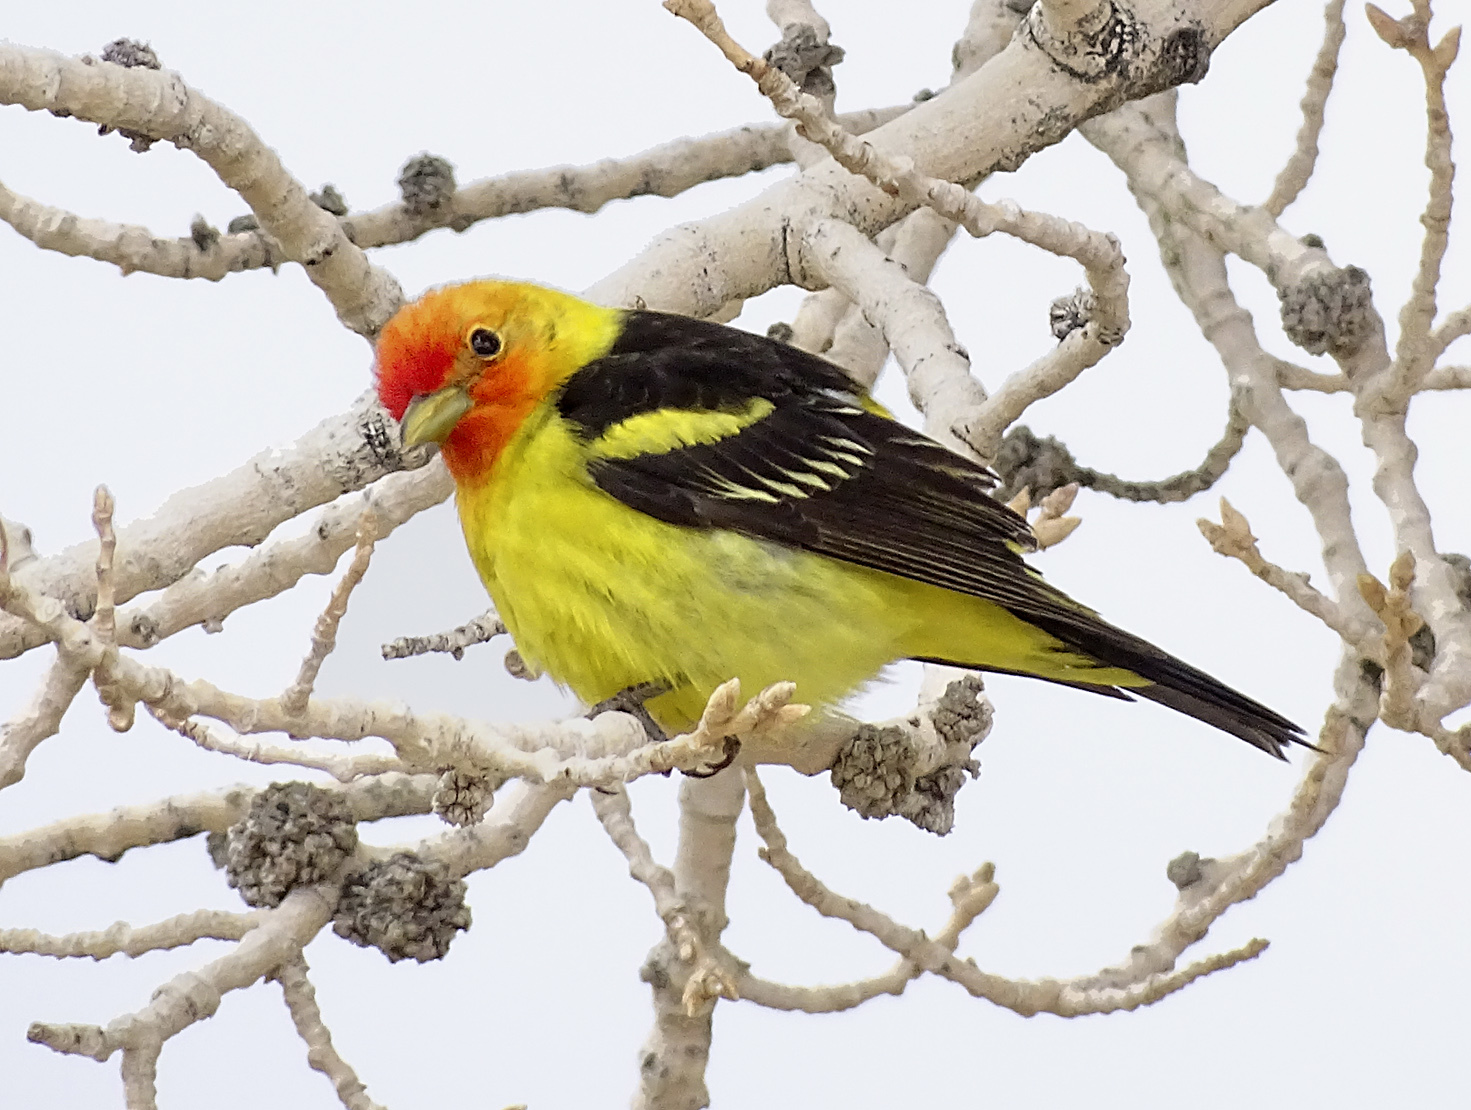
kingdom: Animalia
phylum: Chordata
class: Aves
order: Passeriformes
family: Cardinalidae
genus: Piranga
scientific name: Piranga ludoviciana
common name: Western tanager
